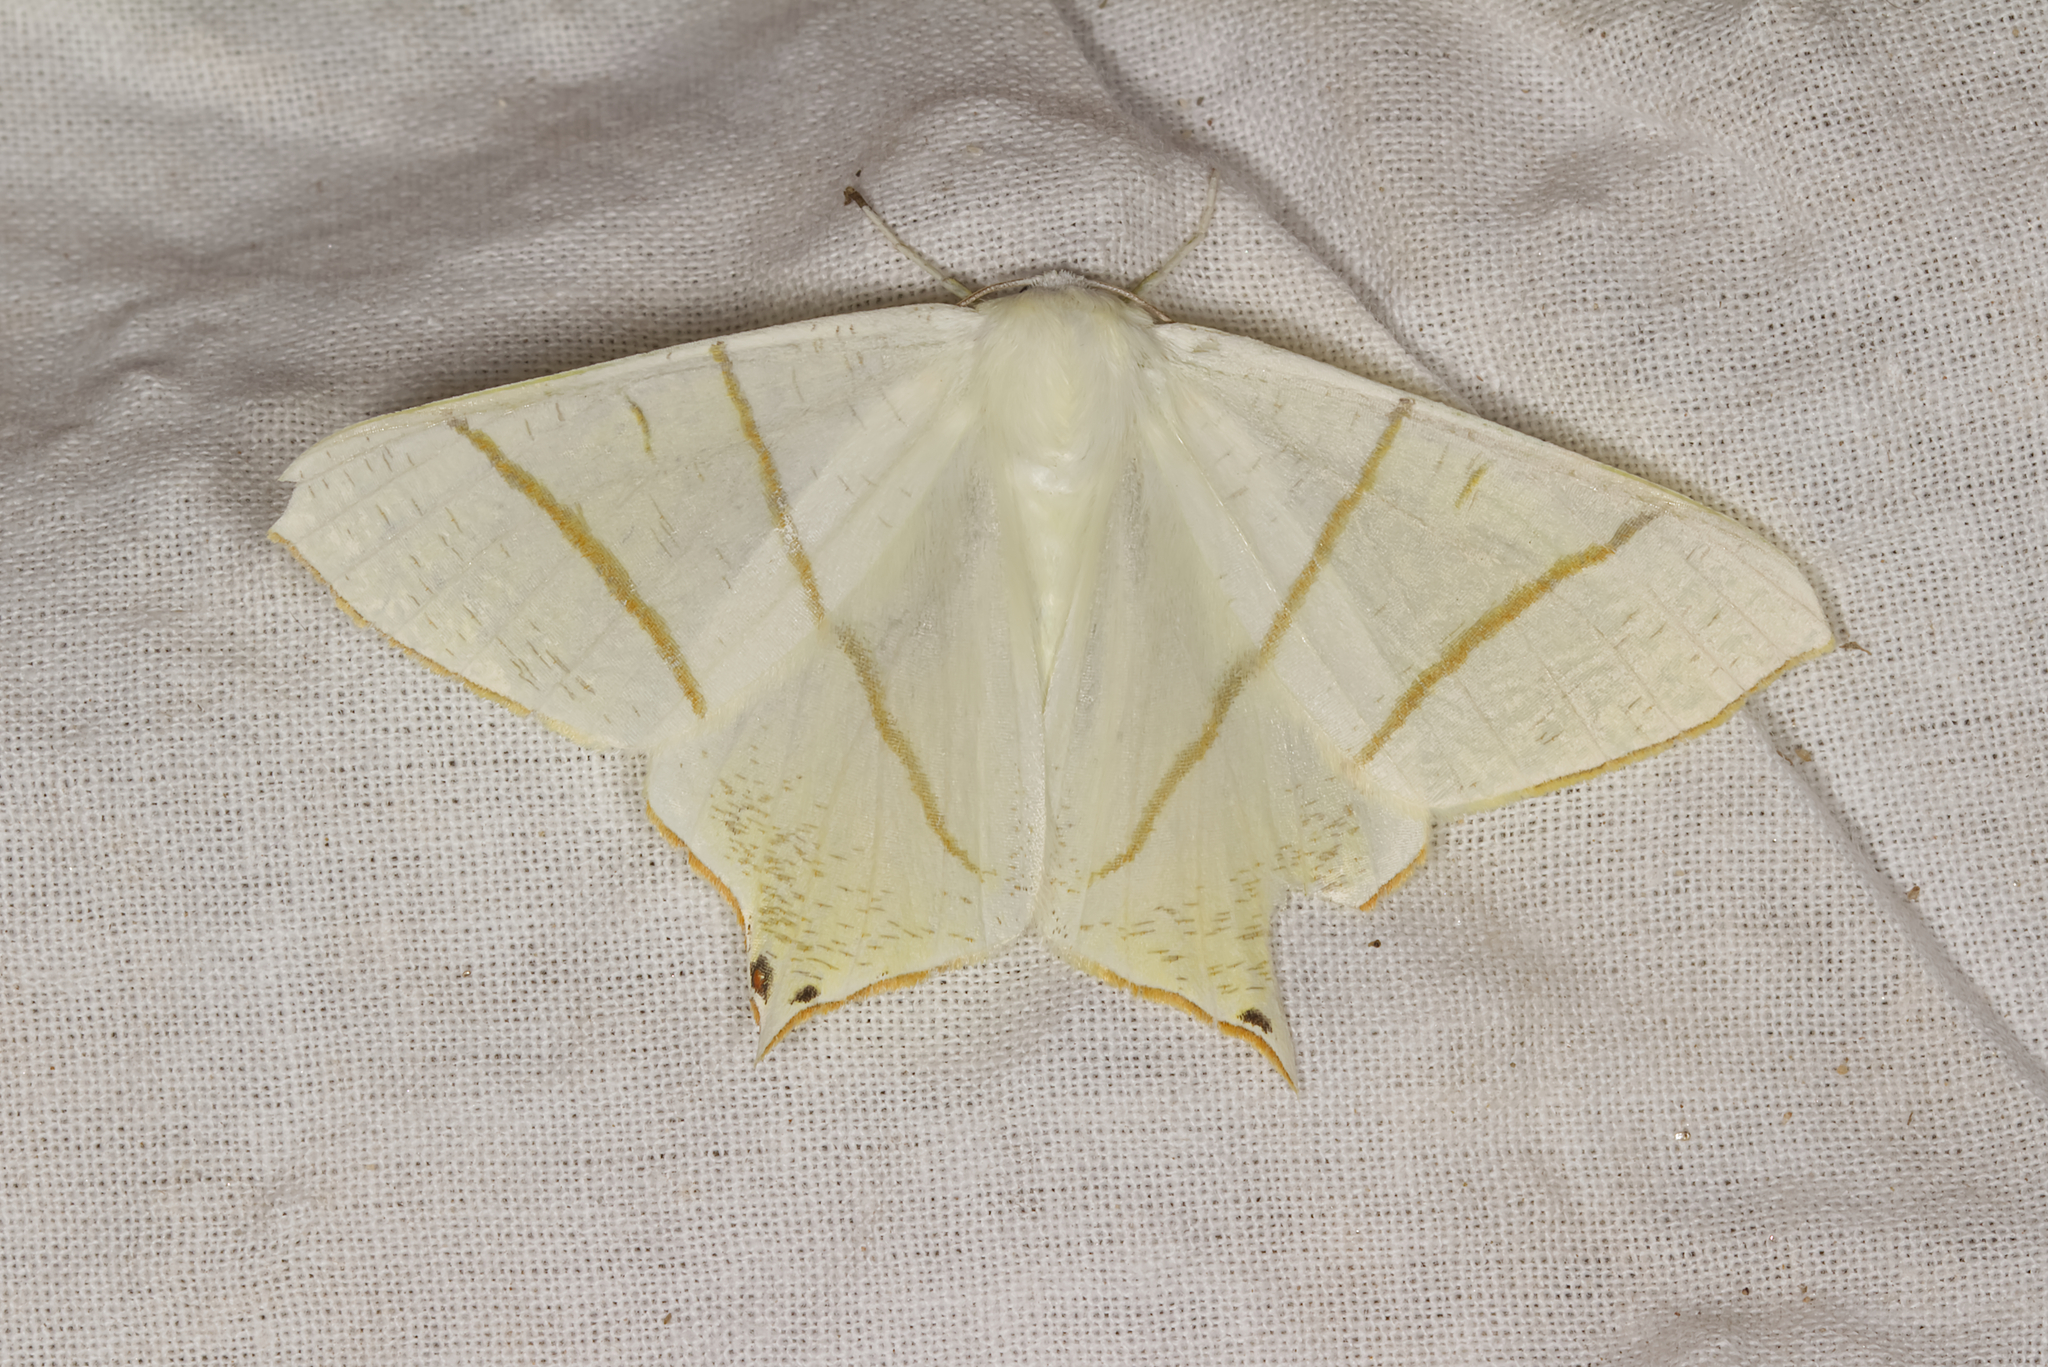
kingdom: Animalia
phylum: Arthropoda
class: Insecta
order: Lepidoptera
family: Geometridae
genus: Ourapteryx
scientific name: Ourapteryx sambucaria
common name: Swallow-tailed moth
